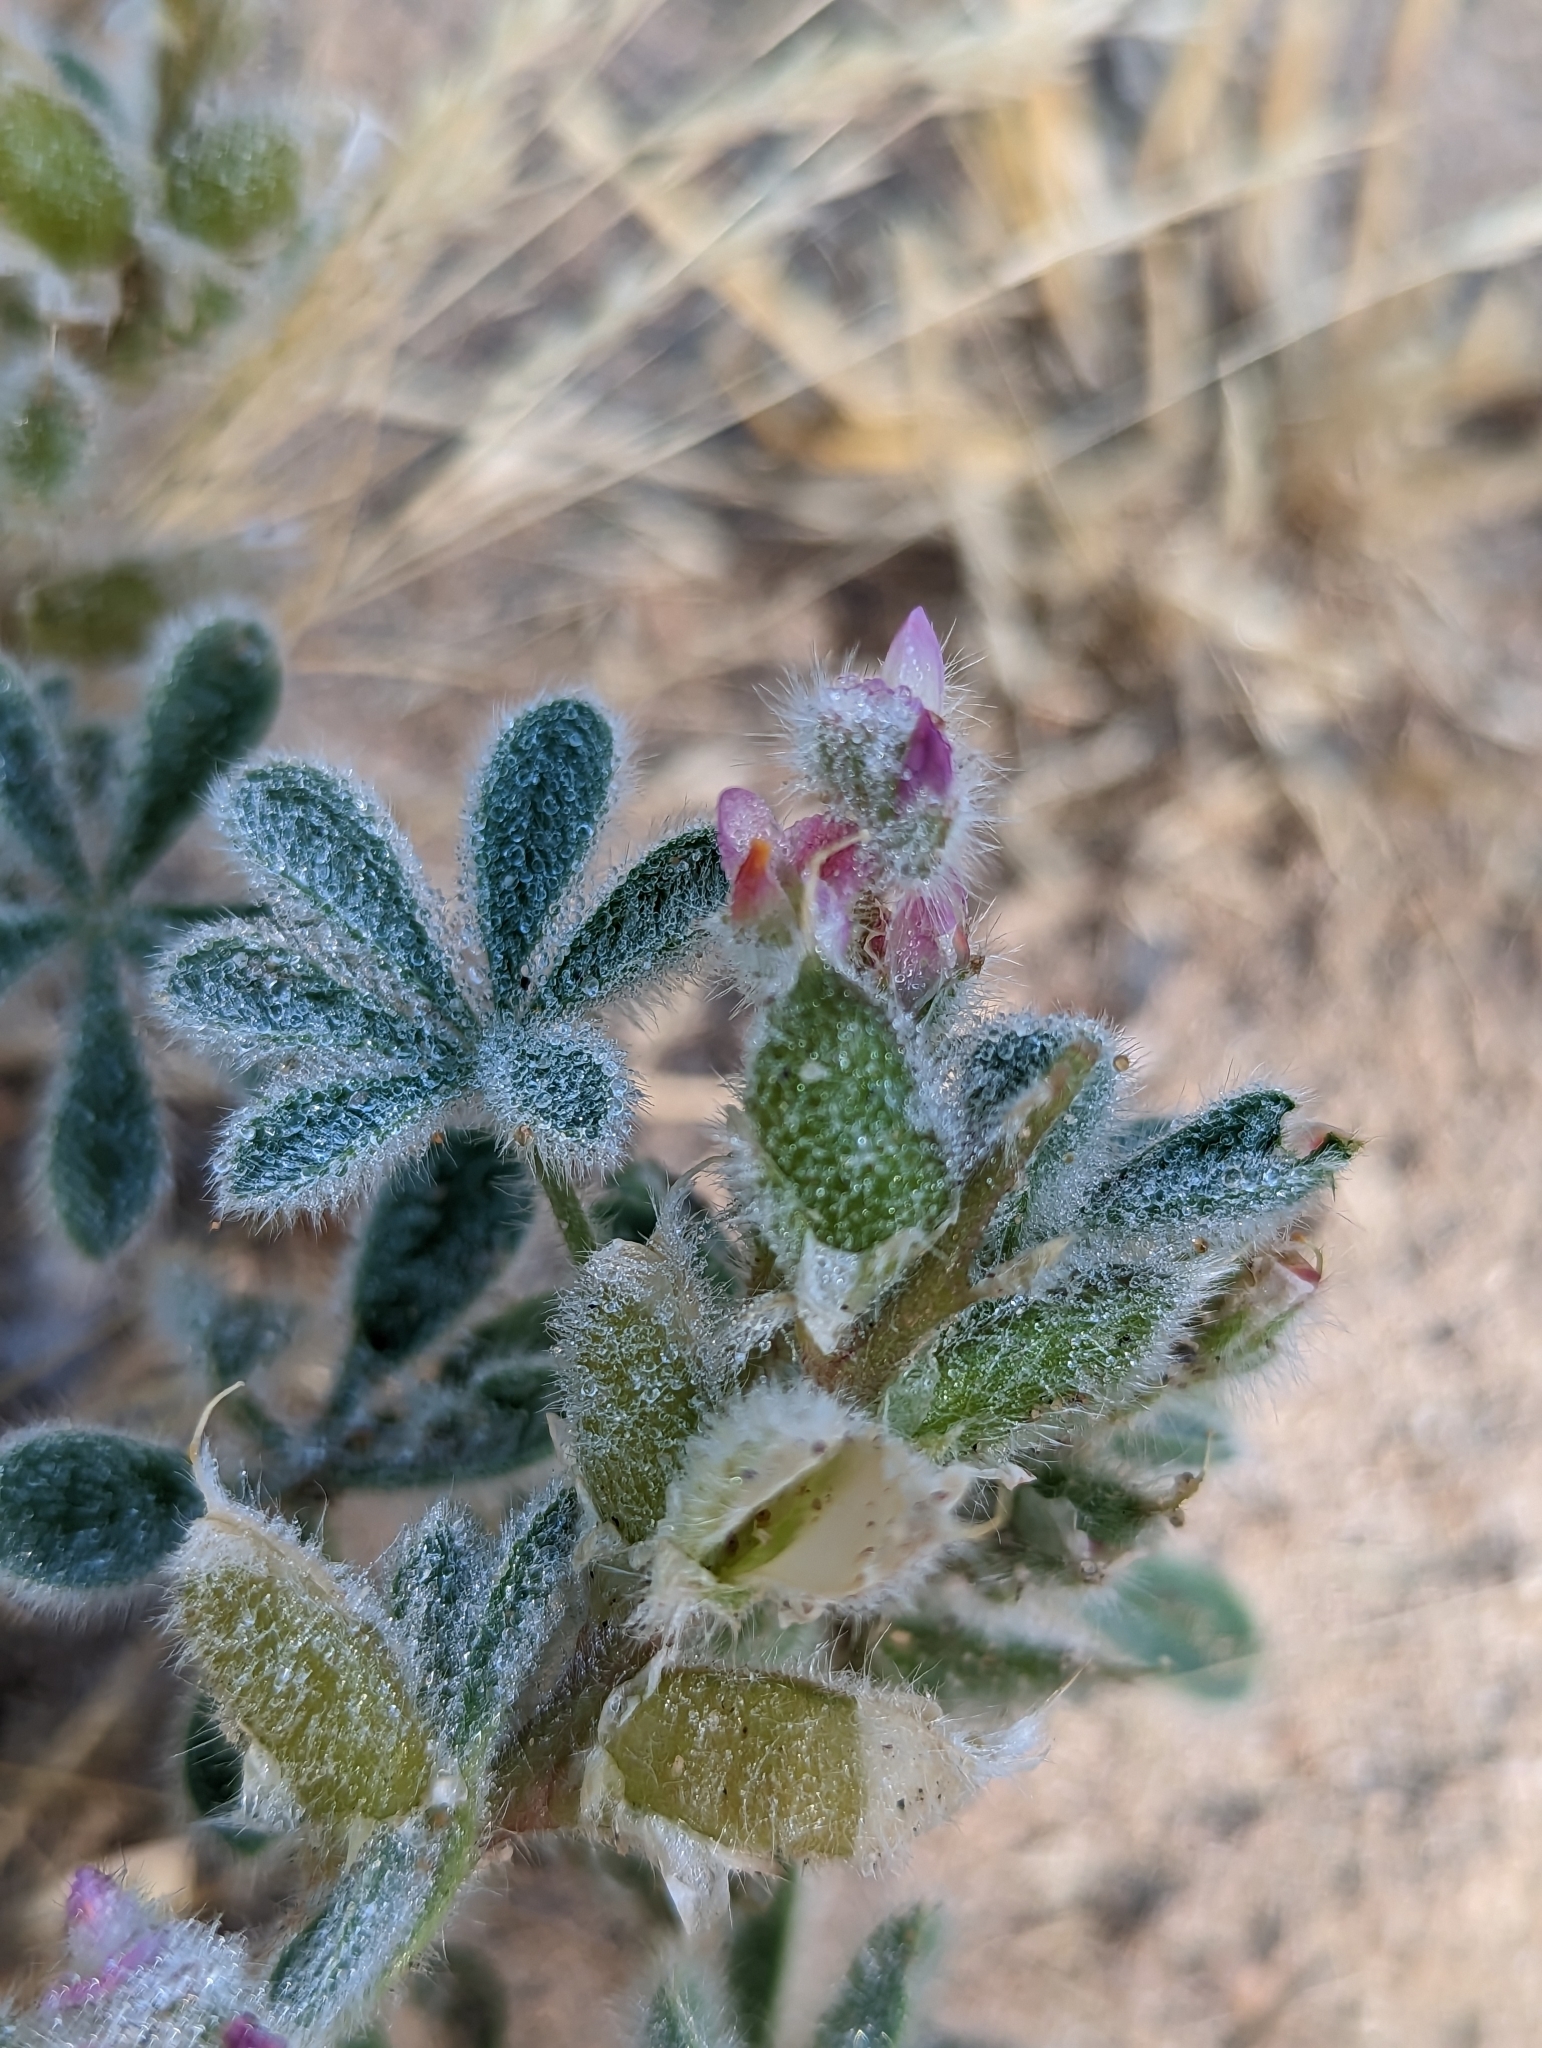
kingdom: Plantae
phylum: Tracheophyta
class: Magnoliopsida
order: Fabales
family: Fabaceae
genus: Lupinus
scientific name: Lupinus concinnus
